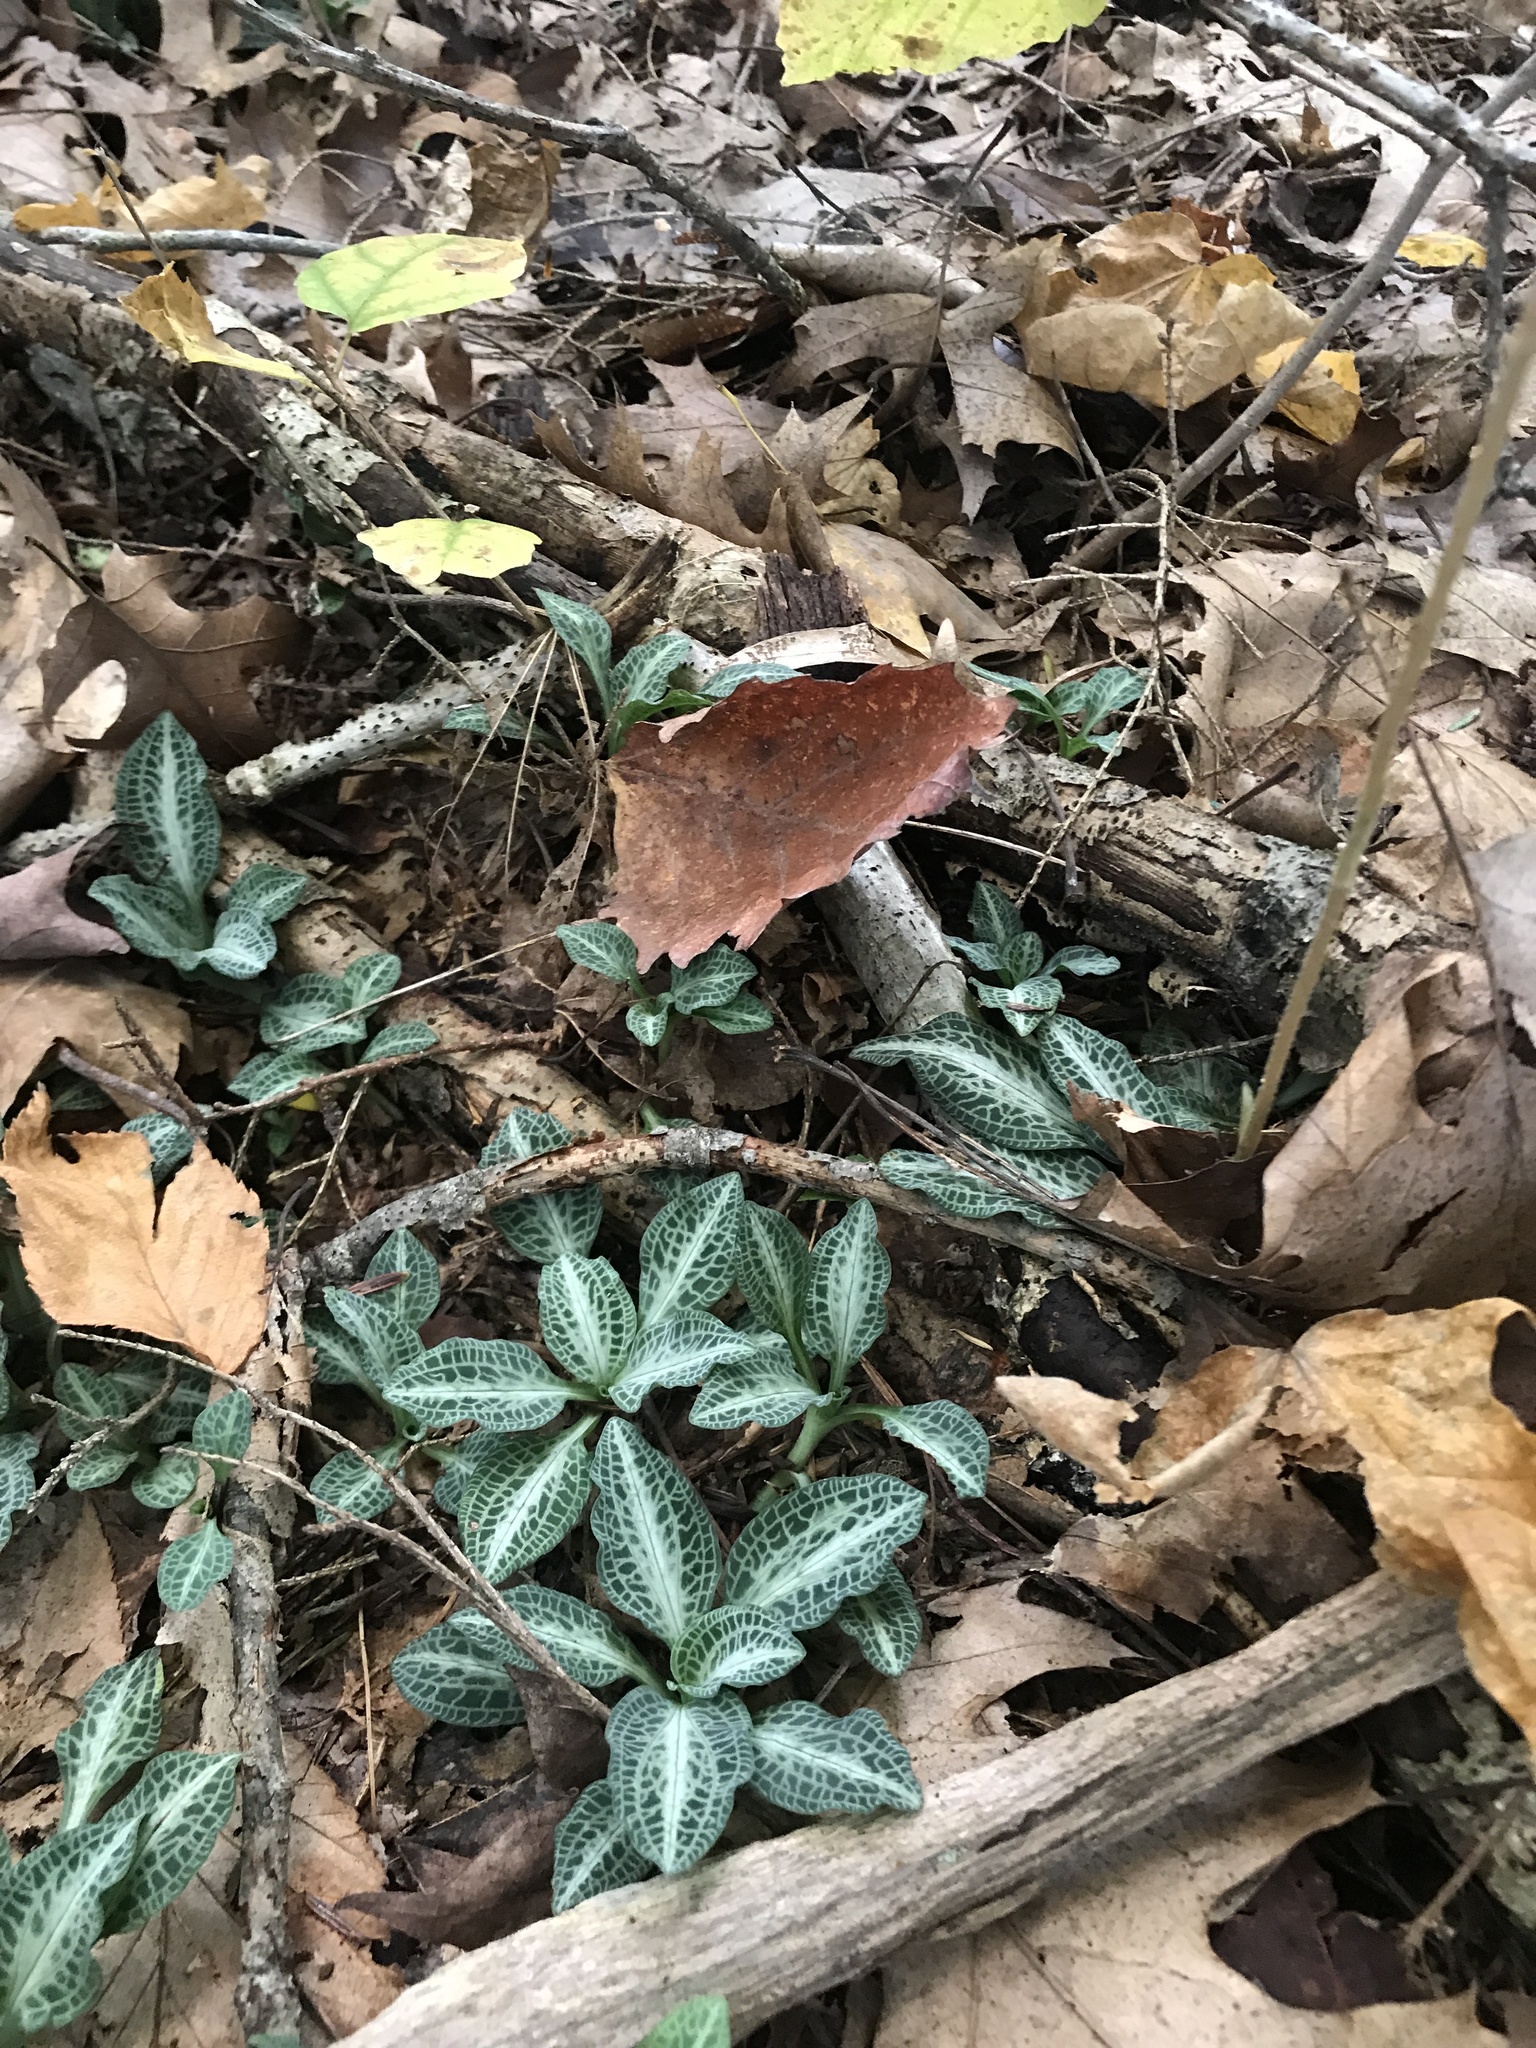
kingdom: Plantae
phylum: Tracheophyta
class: Liliopsida
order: Asparagales
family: Orchidaceae
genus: Goodyera
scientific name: Goodyera pubescens
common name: Downy rattlesnake-plantain
